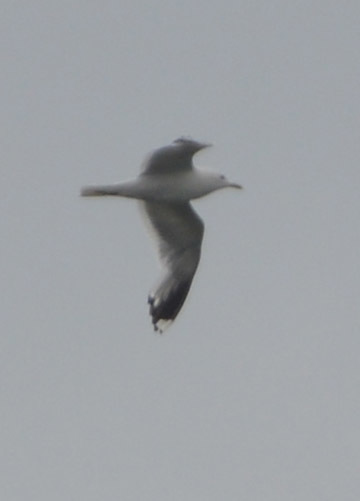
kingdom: Animalia
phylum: Chordata
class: Aves
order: Charadriiformes
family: Laridae
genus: Larus
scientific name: Larus canus
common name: Mew gull
